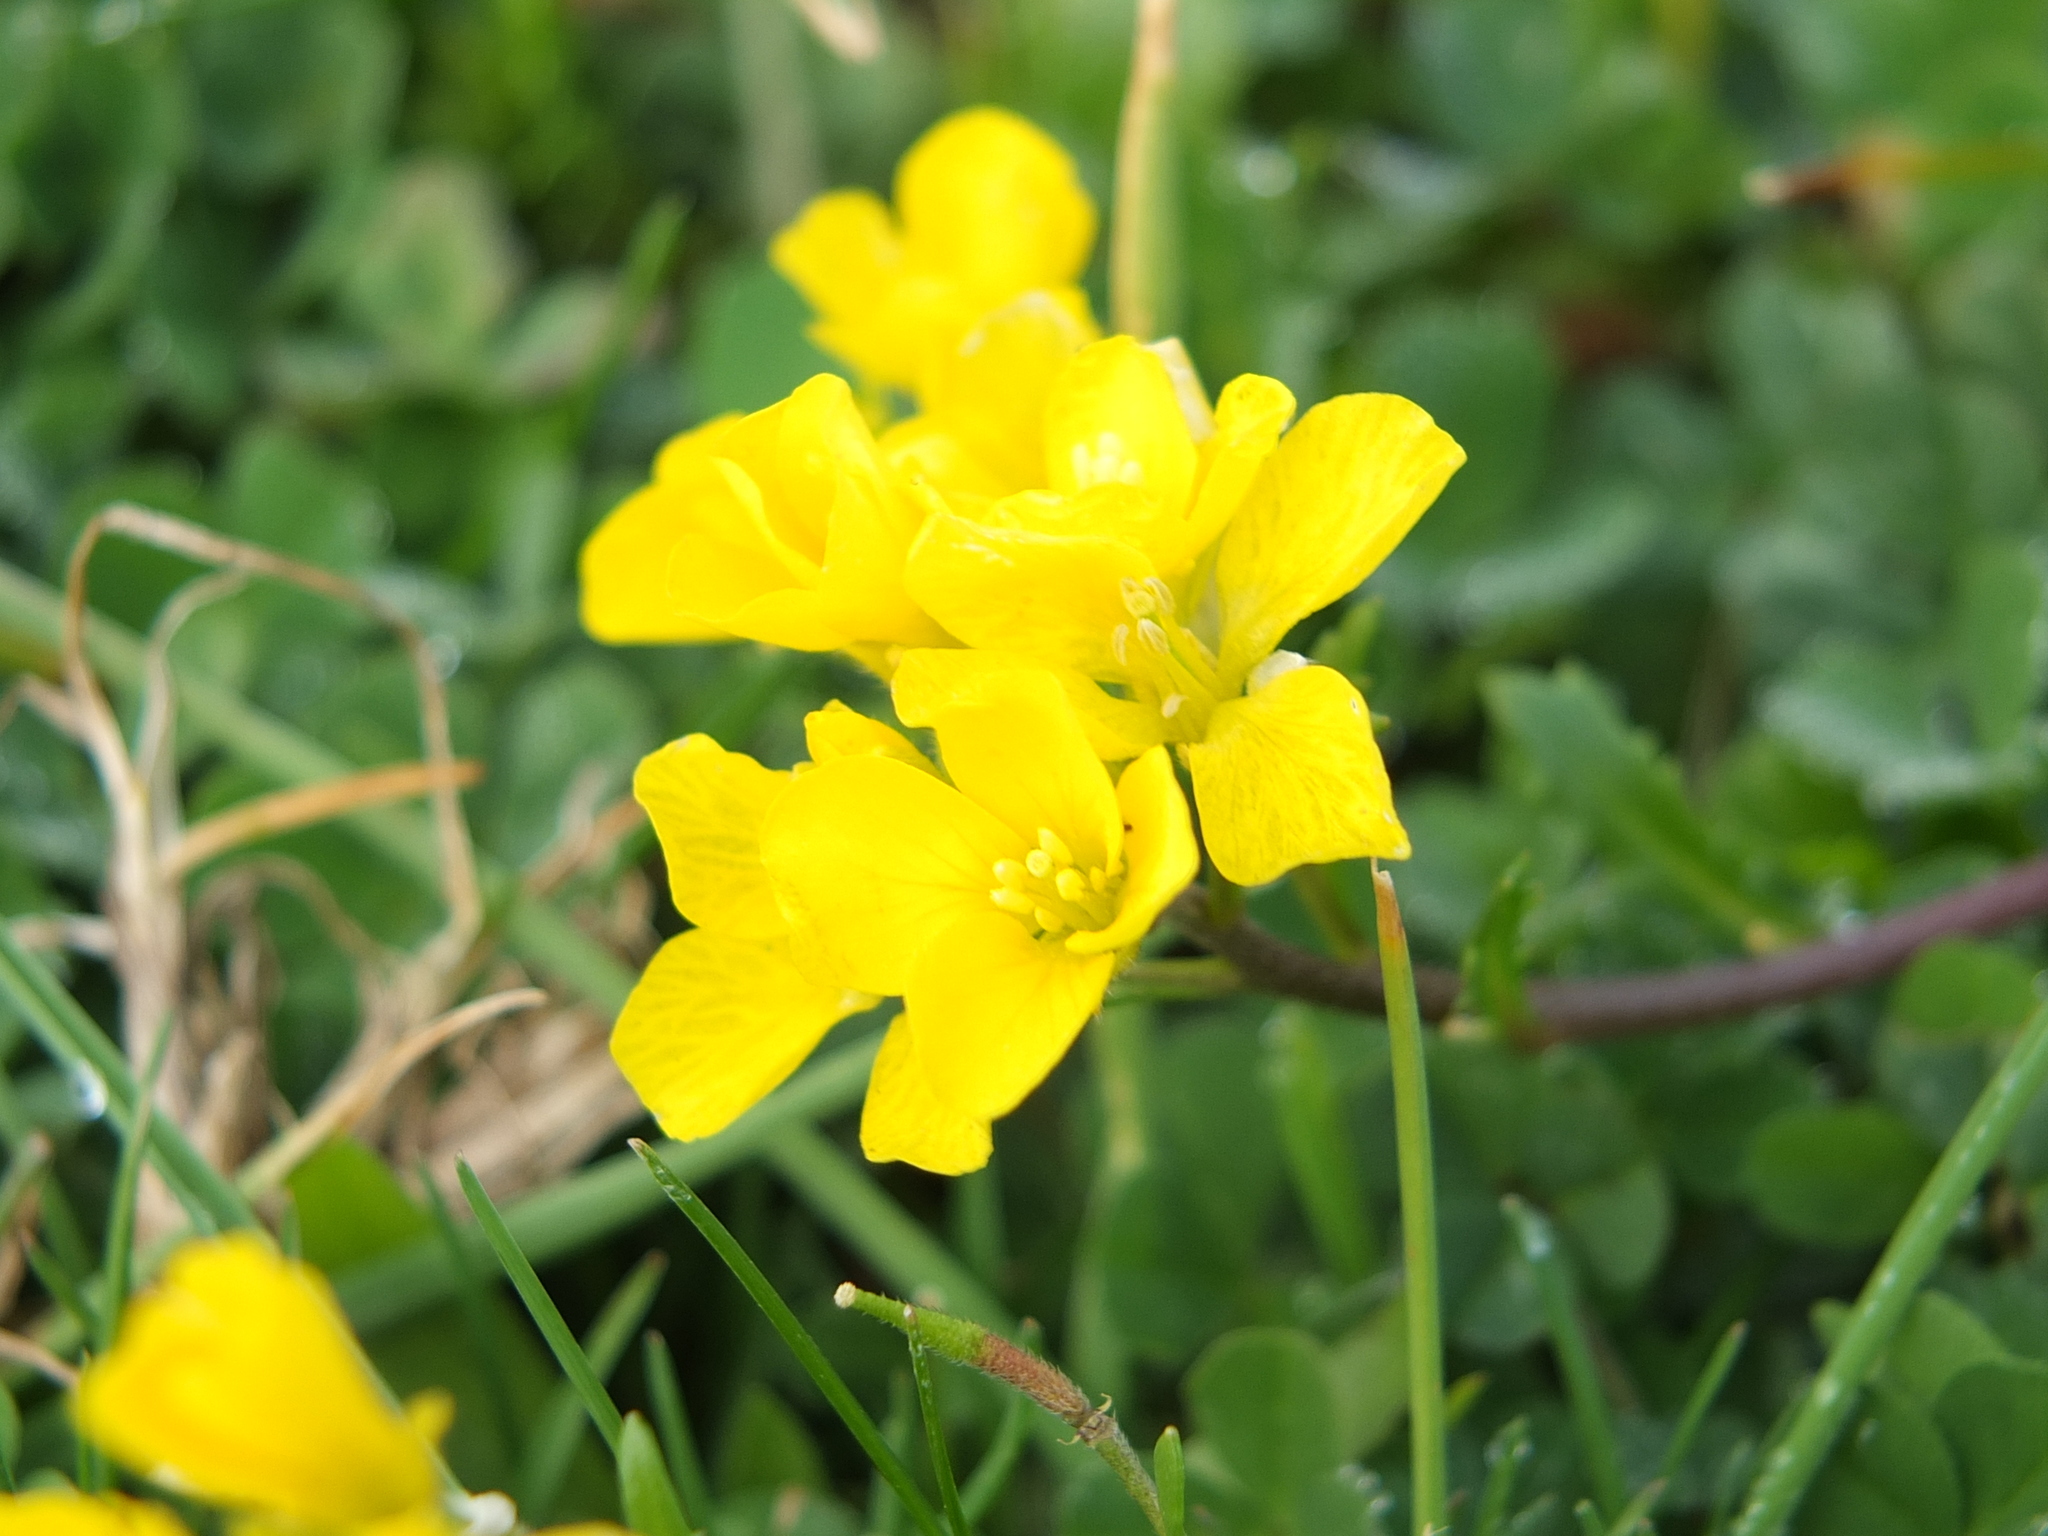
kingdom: Plantae
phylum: Tracheophyta
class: Magnoliopsida
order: Brassicales
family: Brassicaceae
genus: Brassica
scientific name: Brassica procumbens
